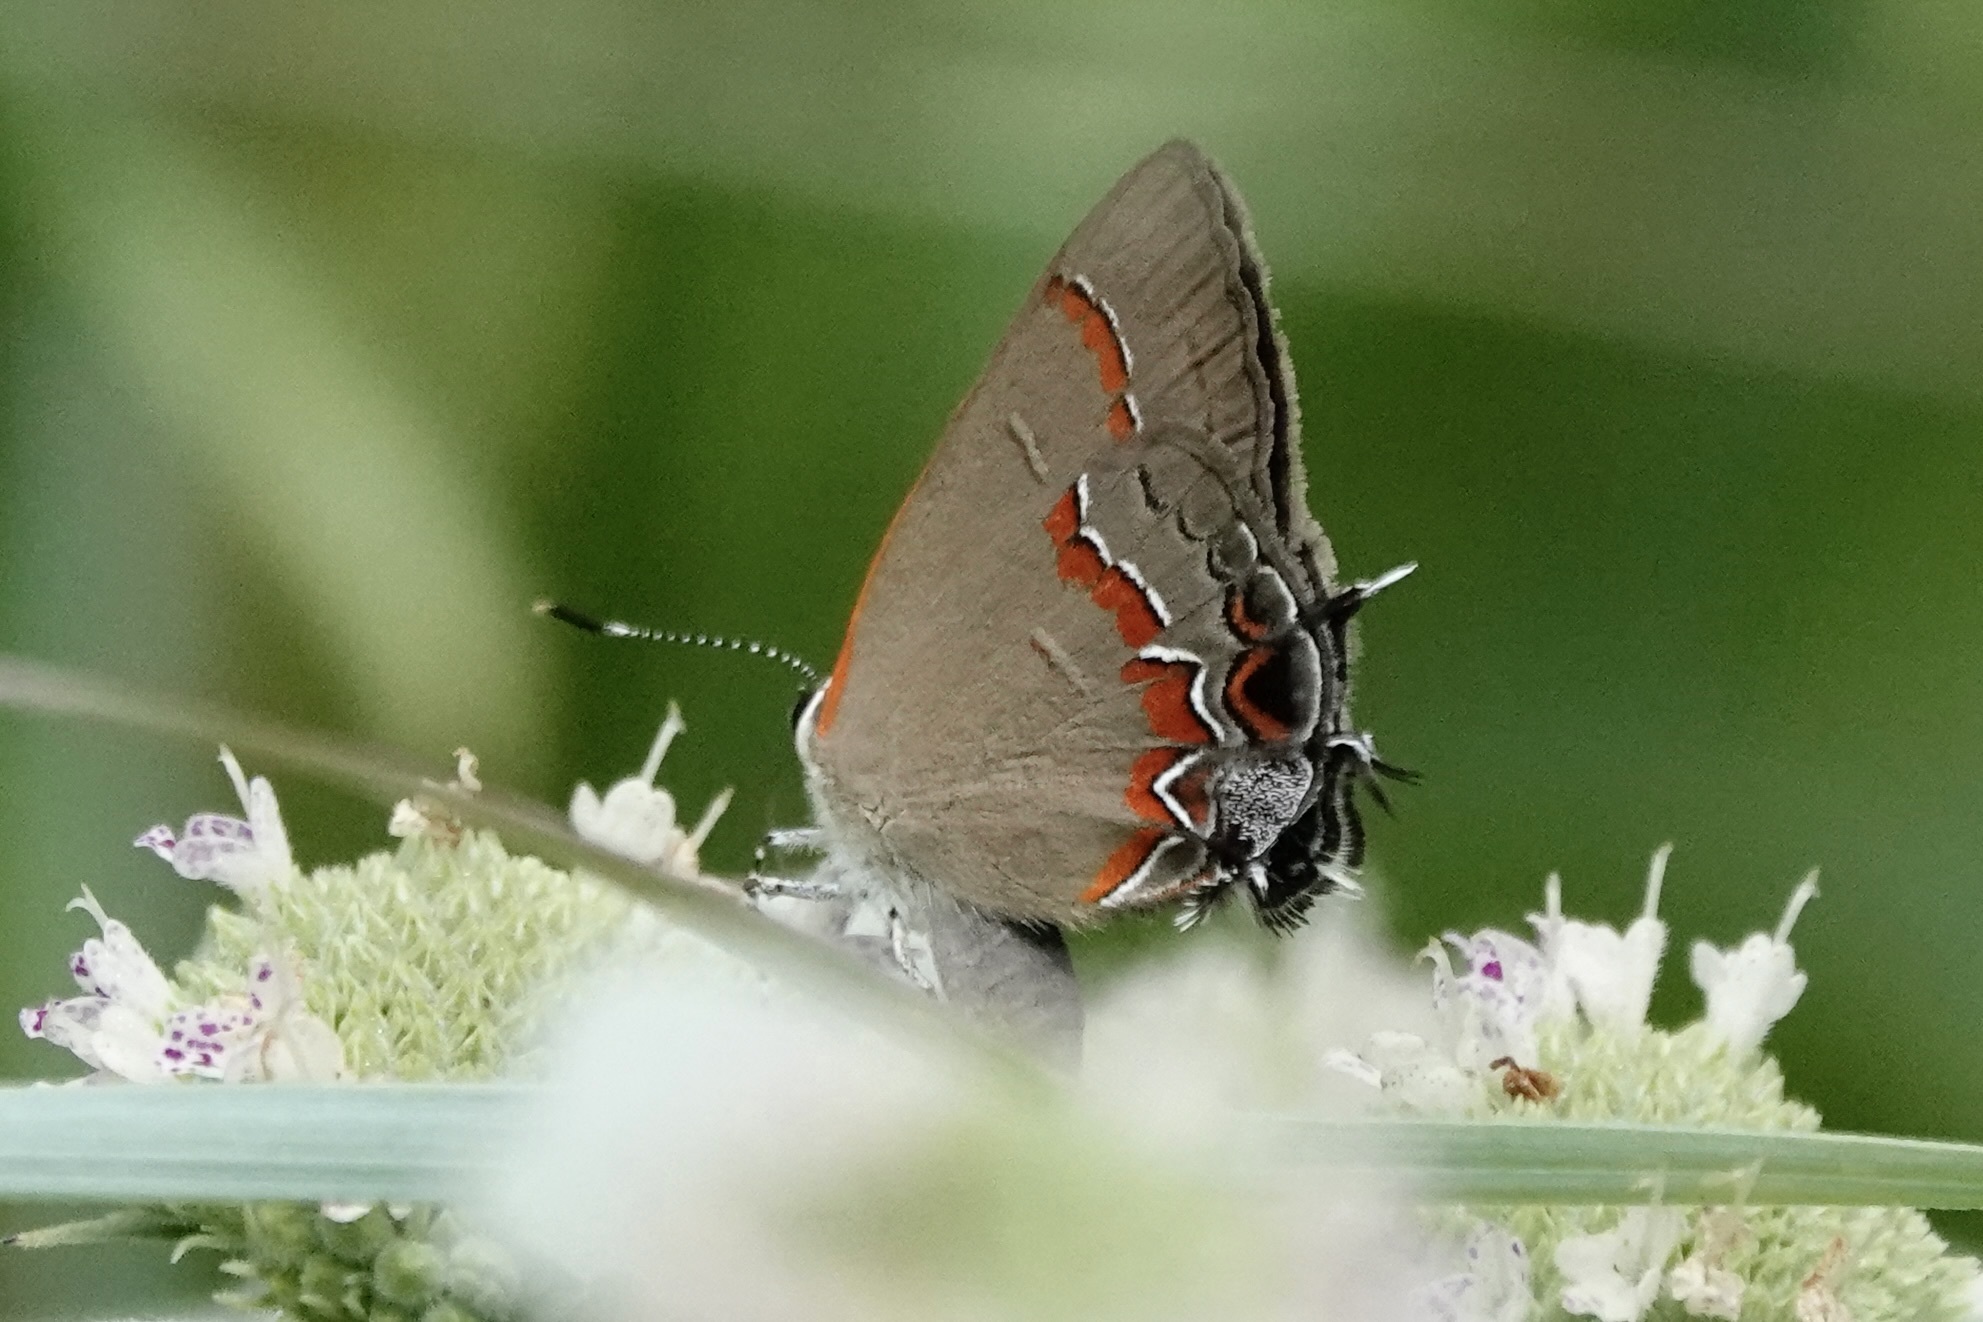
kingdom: Animalia
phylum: Arthropoda
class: Insecta
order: Lepidoptera
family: Lycaenidae
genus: Calycopis
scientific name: Calycopis cecrops
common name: Red-banded hairstreak
